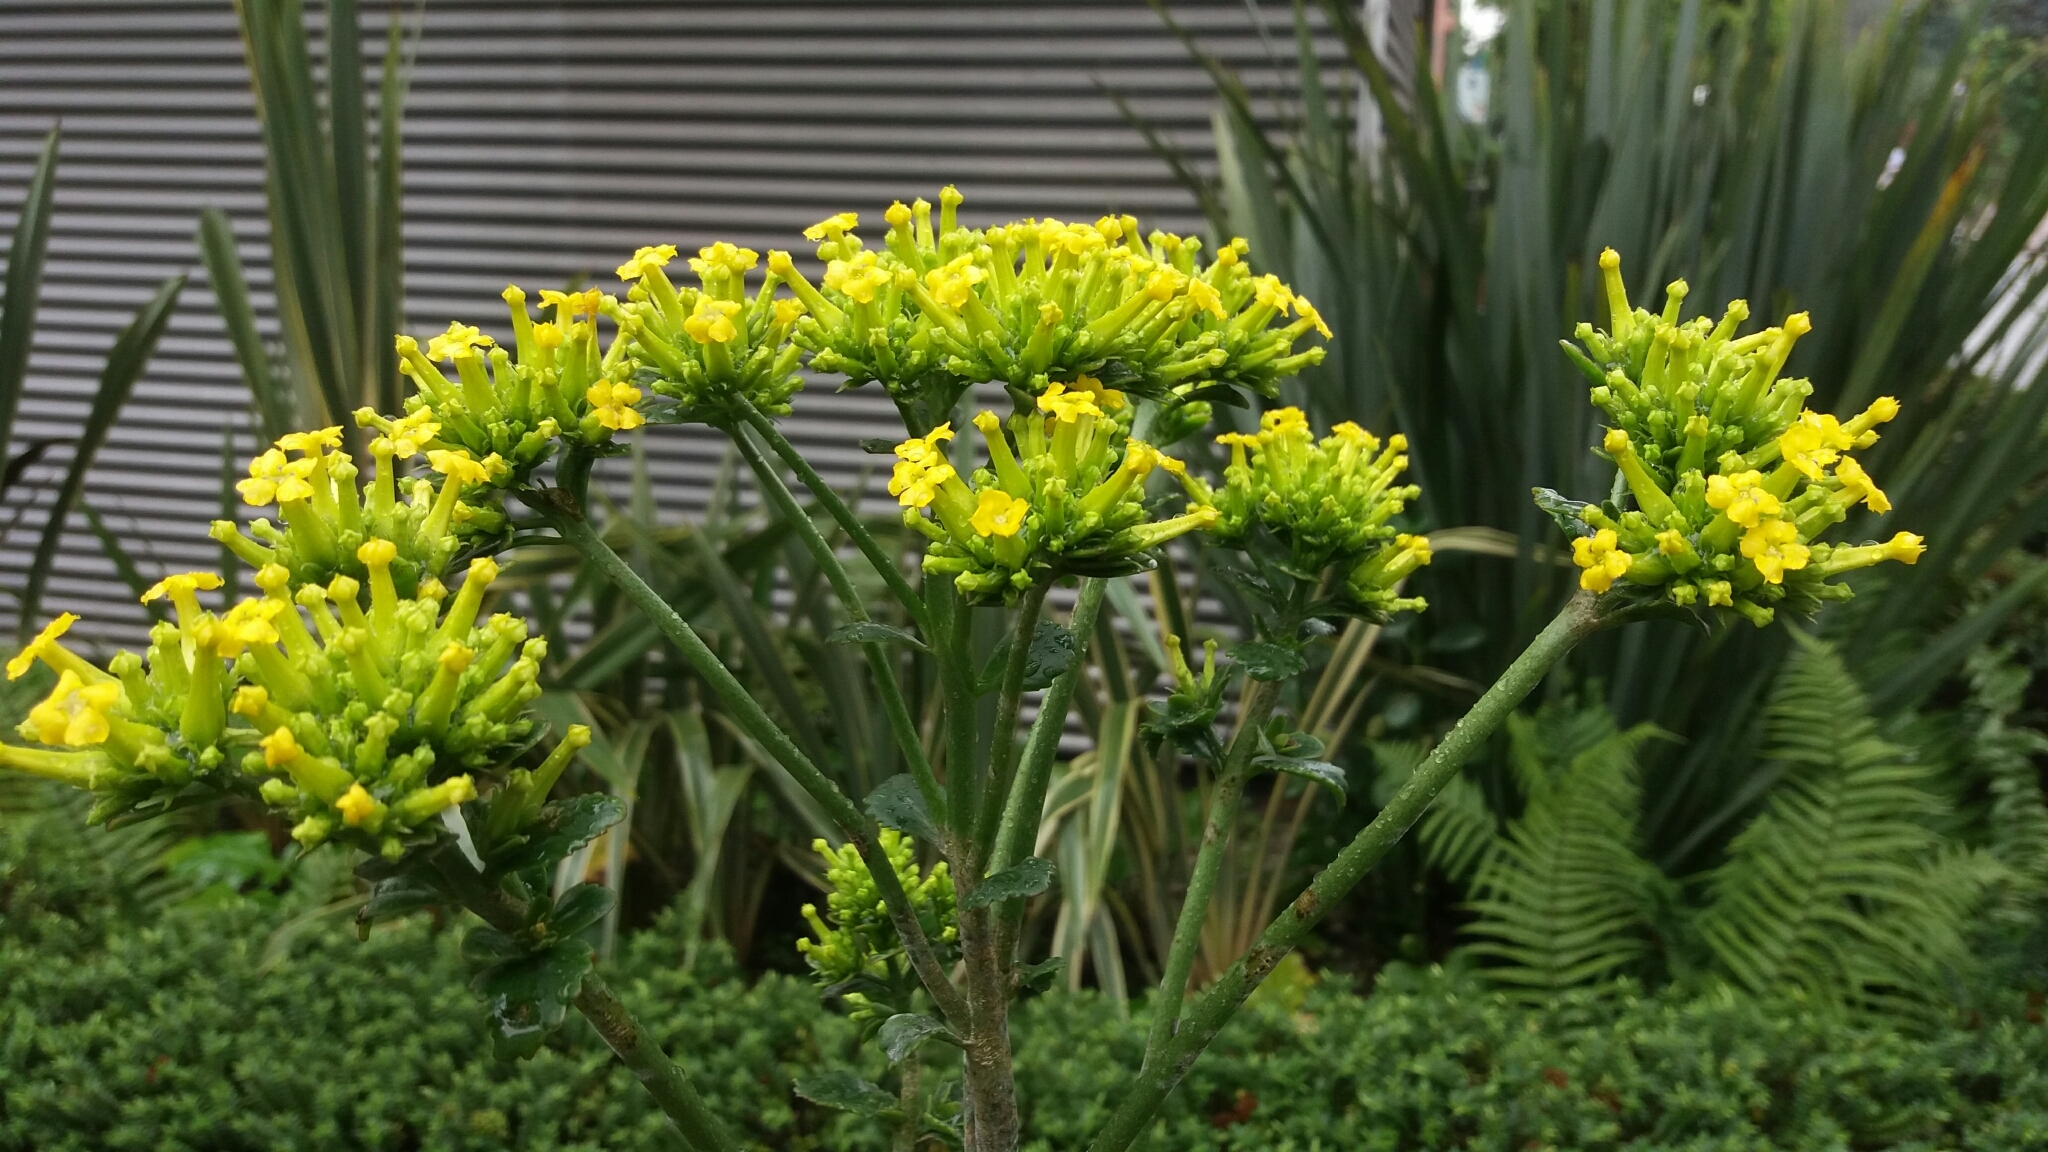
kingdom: Plantae
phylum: Tracheophyta
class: Magnoliopsida
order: Saxifragales
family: Crassulaceae
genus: Kalanchoe
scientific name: Kalanchoe densiflora
